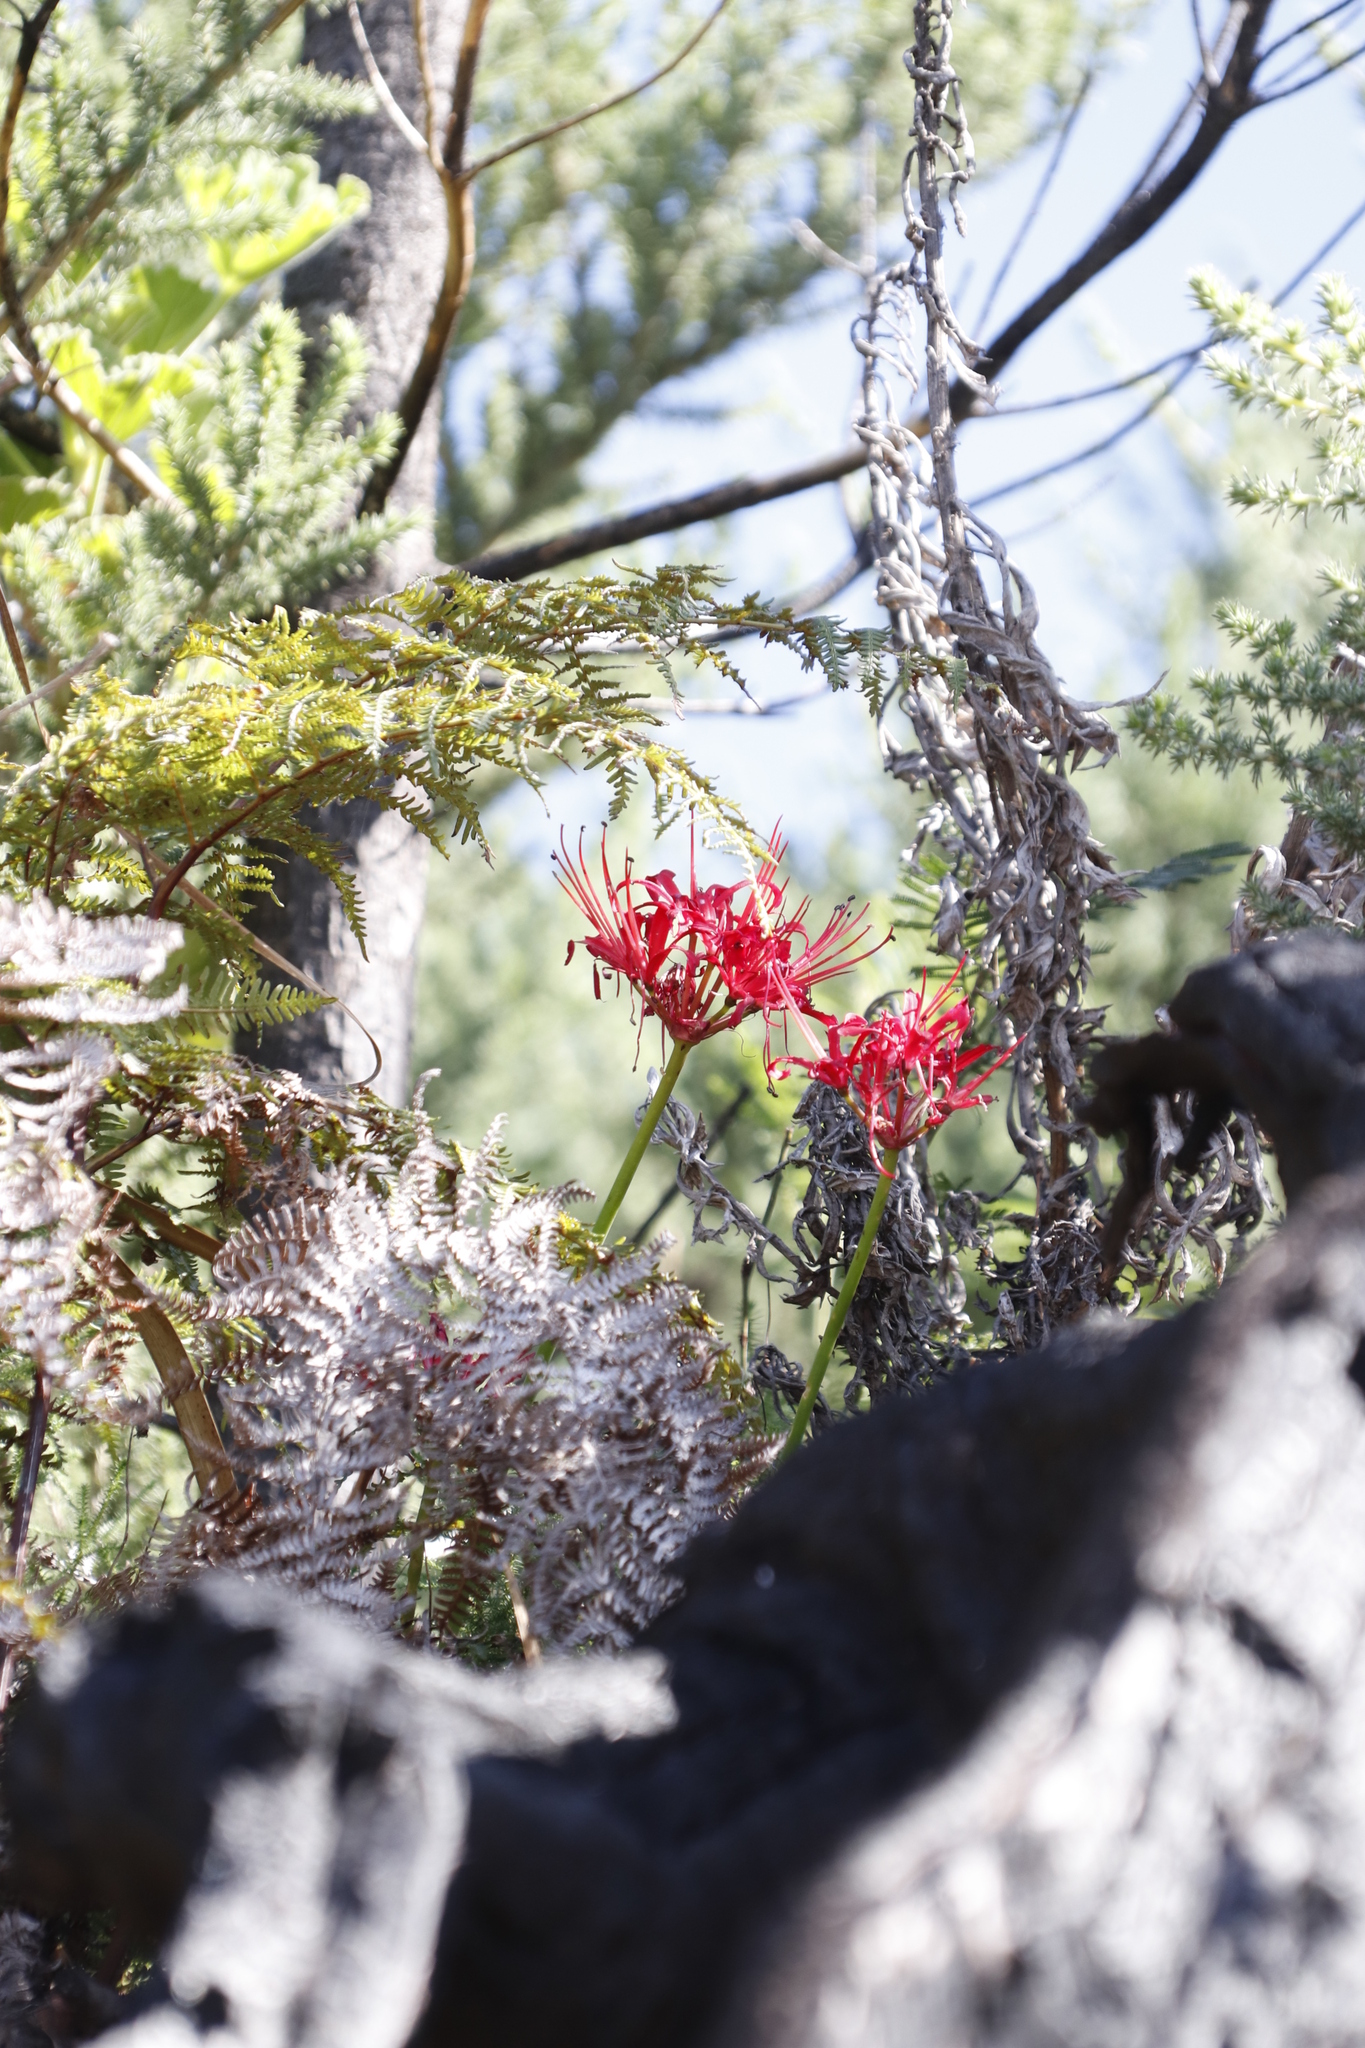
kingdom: Plantae
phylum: Tracheophyta
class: Liliopsida
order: Asparagales
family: Amaryllidaceae
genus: Nerine
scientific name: Nerine sarniensis
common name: Guernsey-lily
